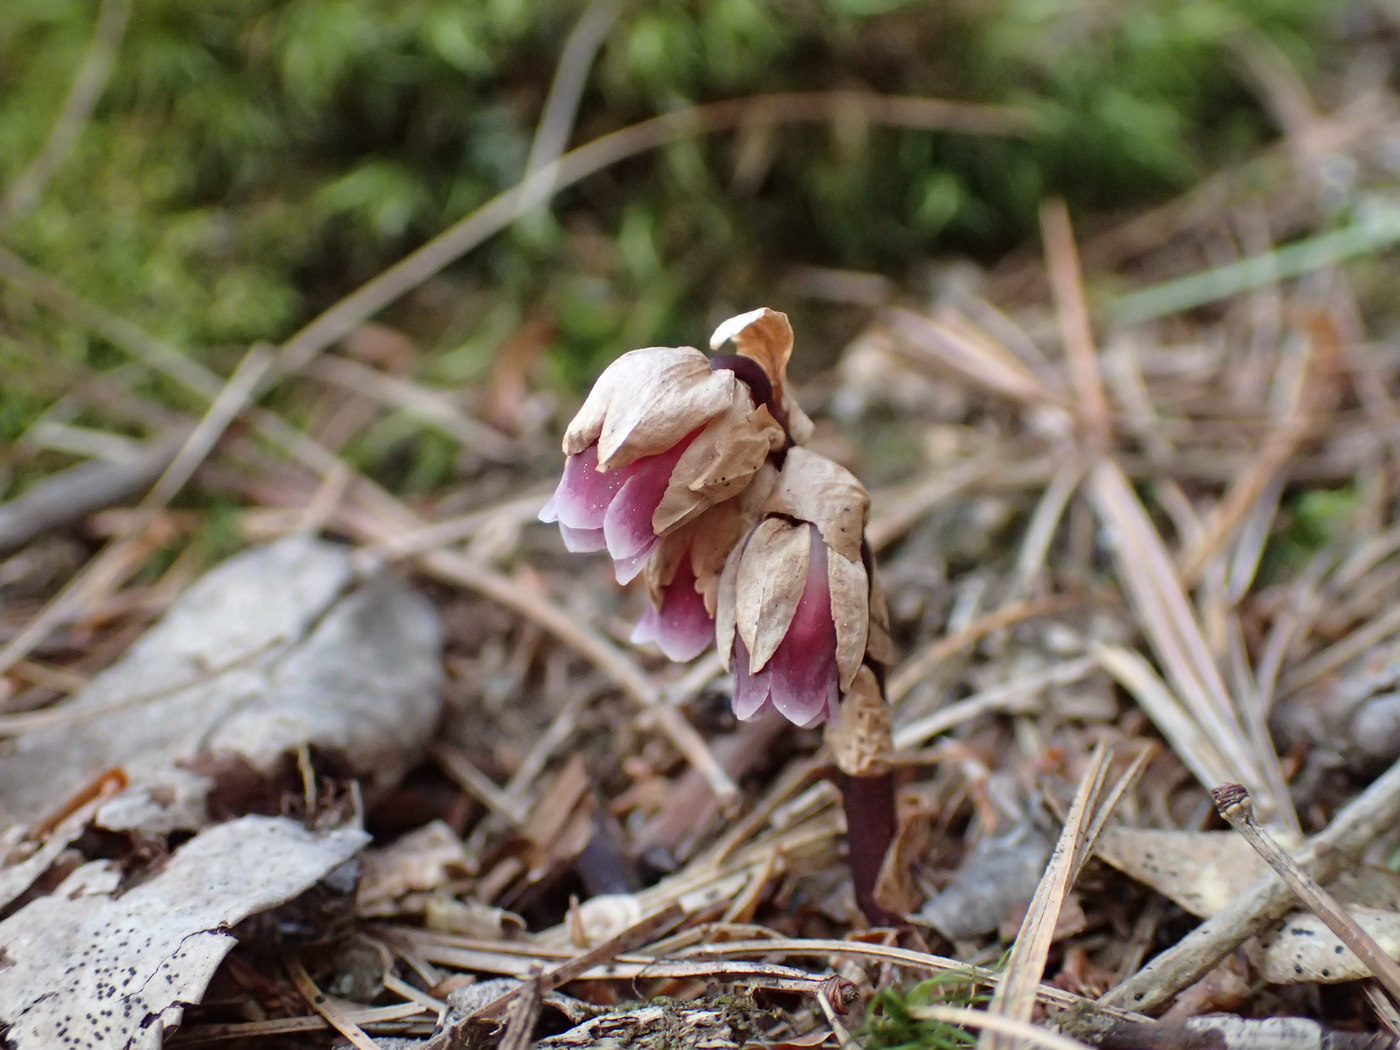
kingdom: Plantae
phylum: Tracheophyta
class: Magnoliopsida
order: Ericales
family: Ericaceae
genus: Monotropsis
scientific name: Monotropsis odorata
